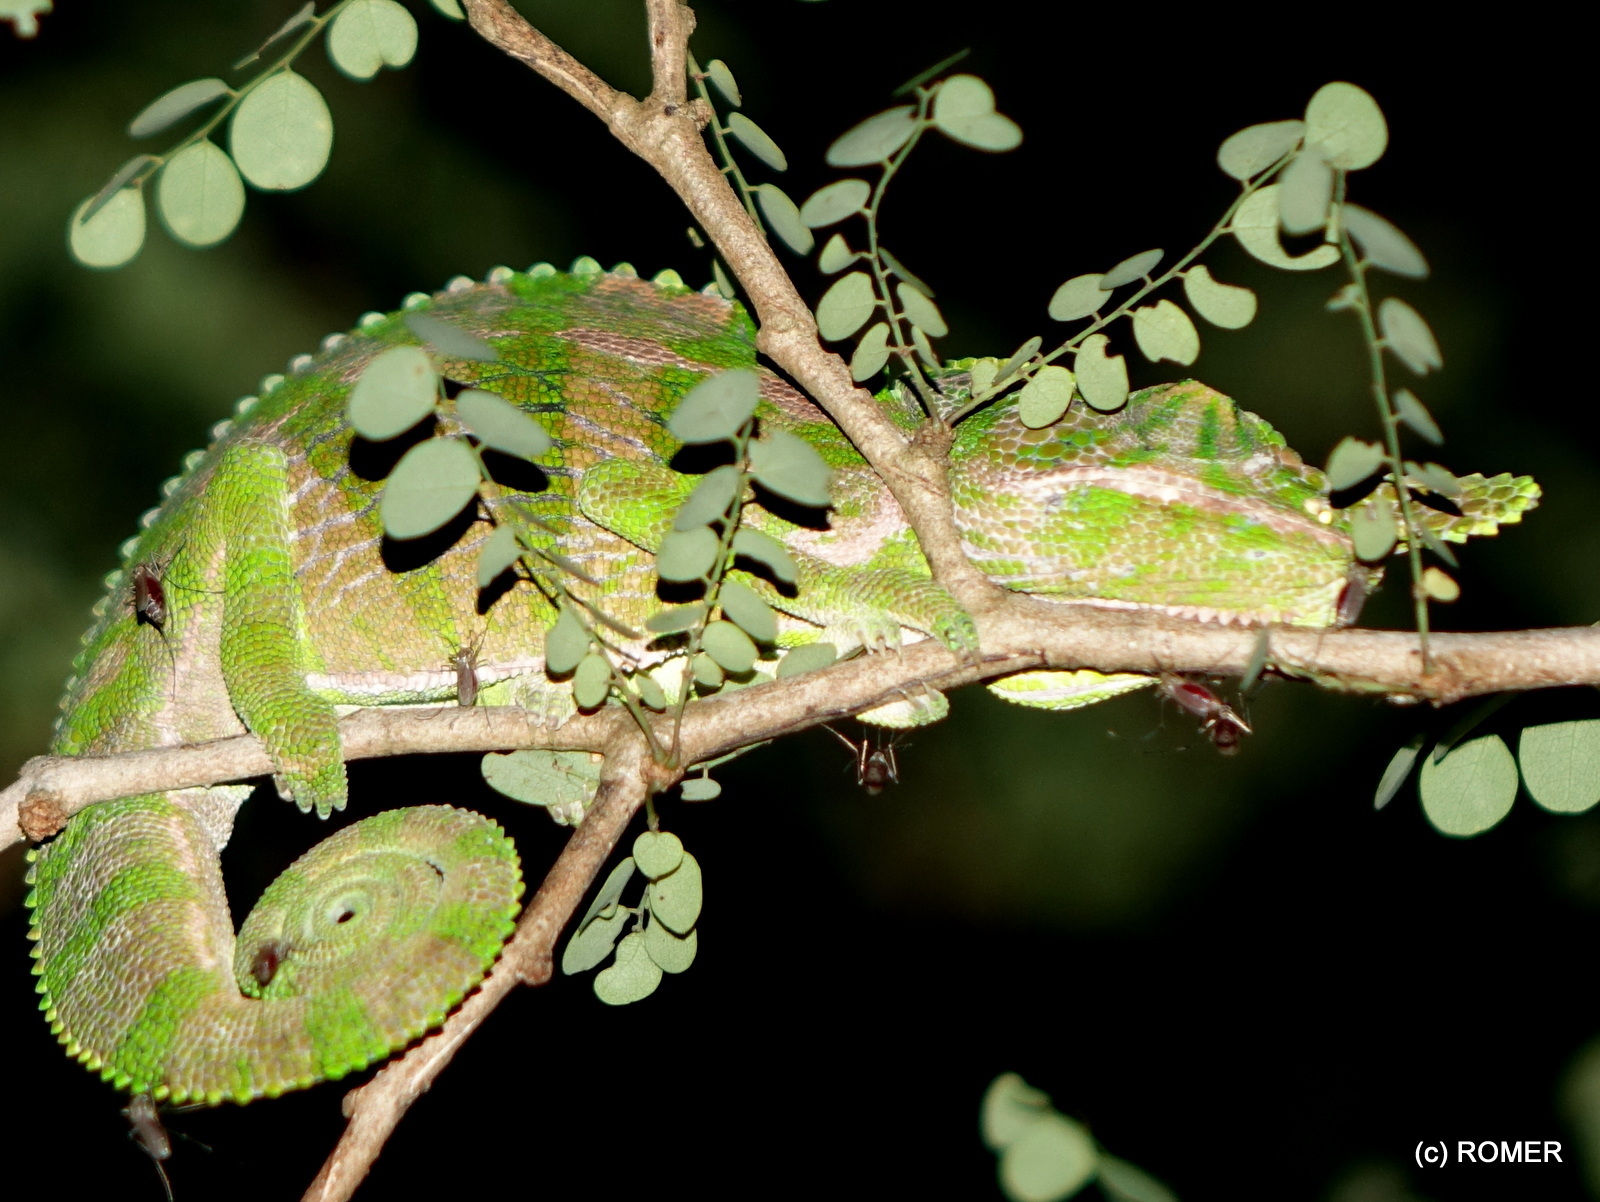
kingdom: Animalia
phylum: Chordata
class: Squamata
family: Chamaeleonidae
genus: Furcifer
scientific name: Furcifer labordi
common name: Laborde's chameleon
